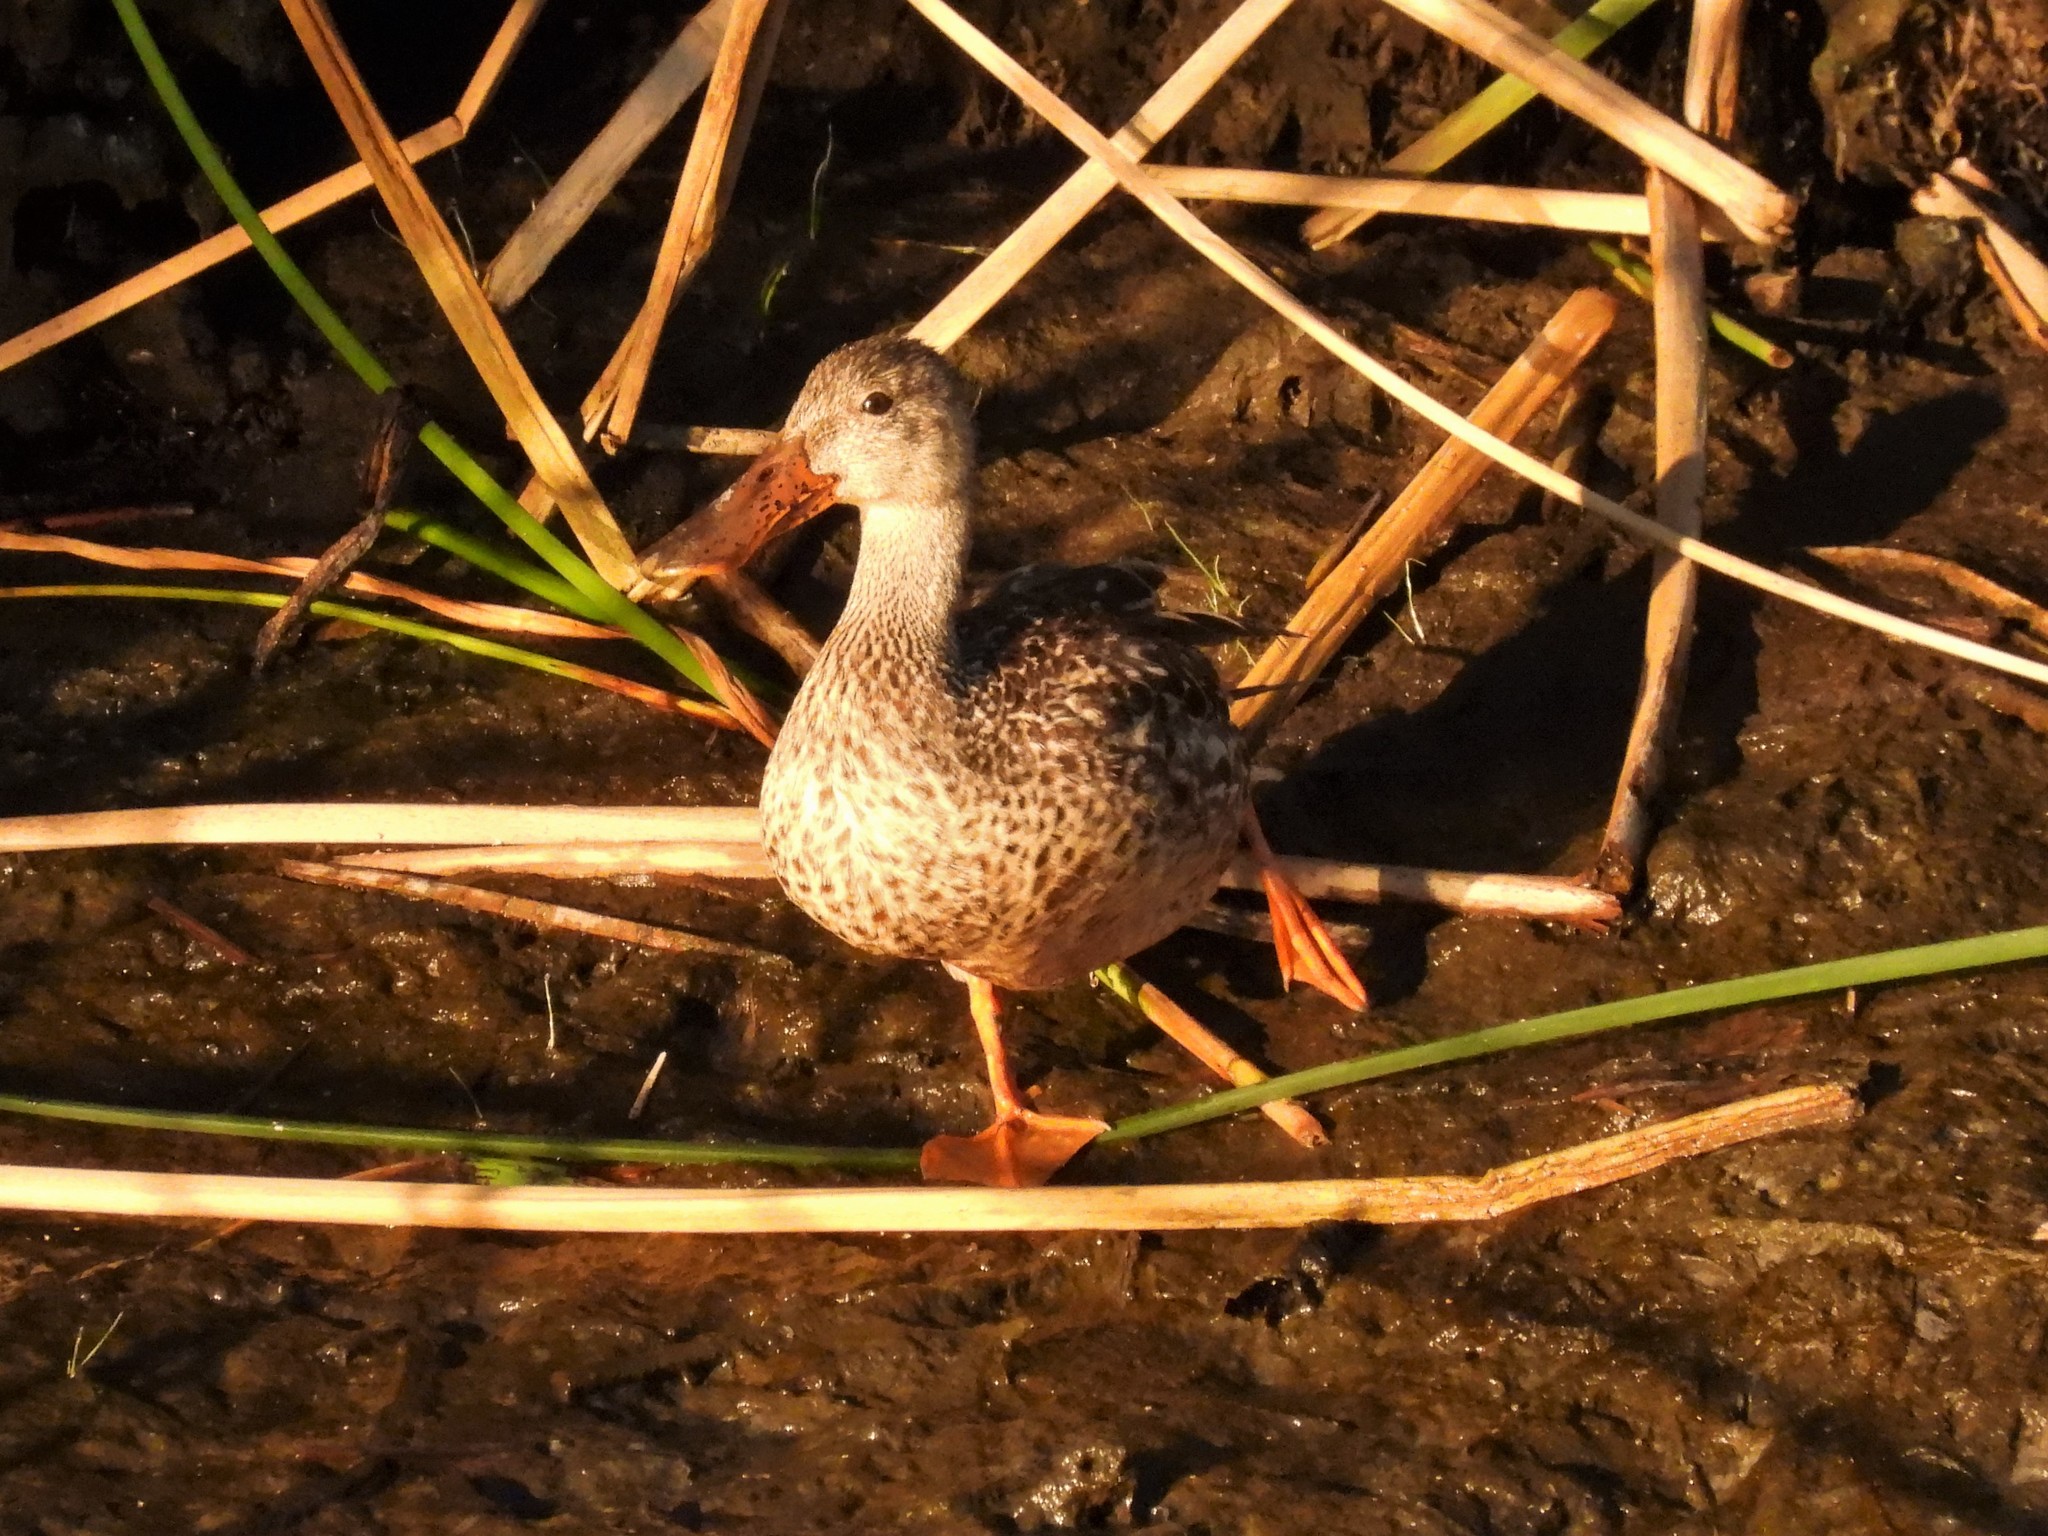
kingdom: Animalia
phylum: Chordata
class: Aves
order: Anseriformes
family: Anatidae
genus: Spatula
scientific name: Spatula clypeata
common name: Northern shoveler
